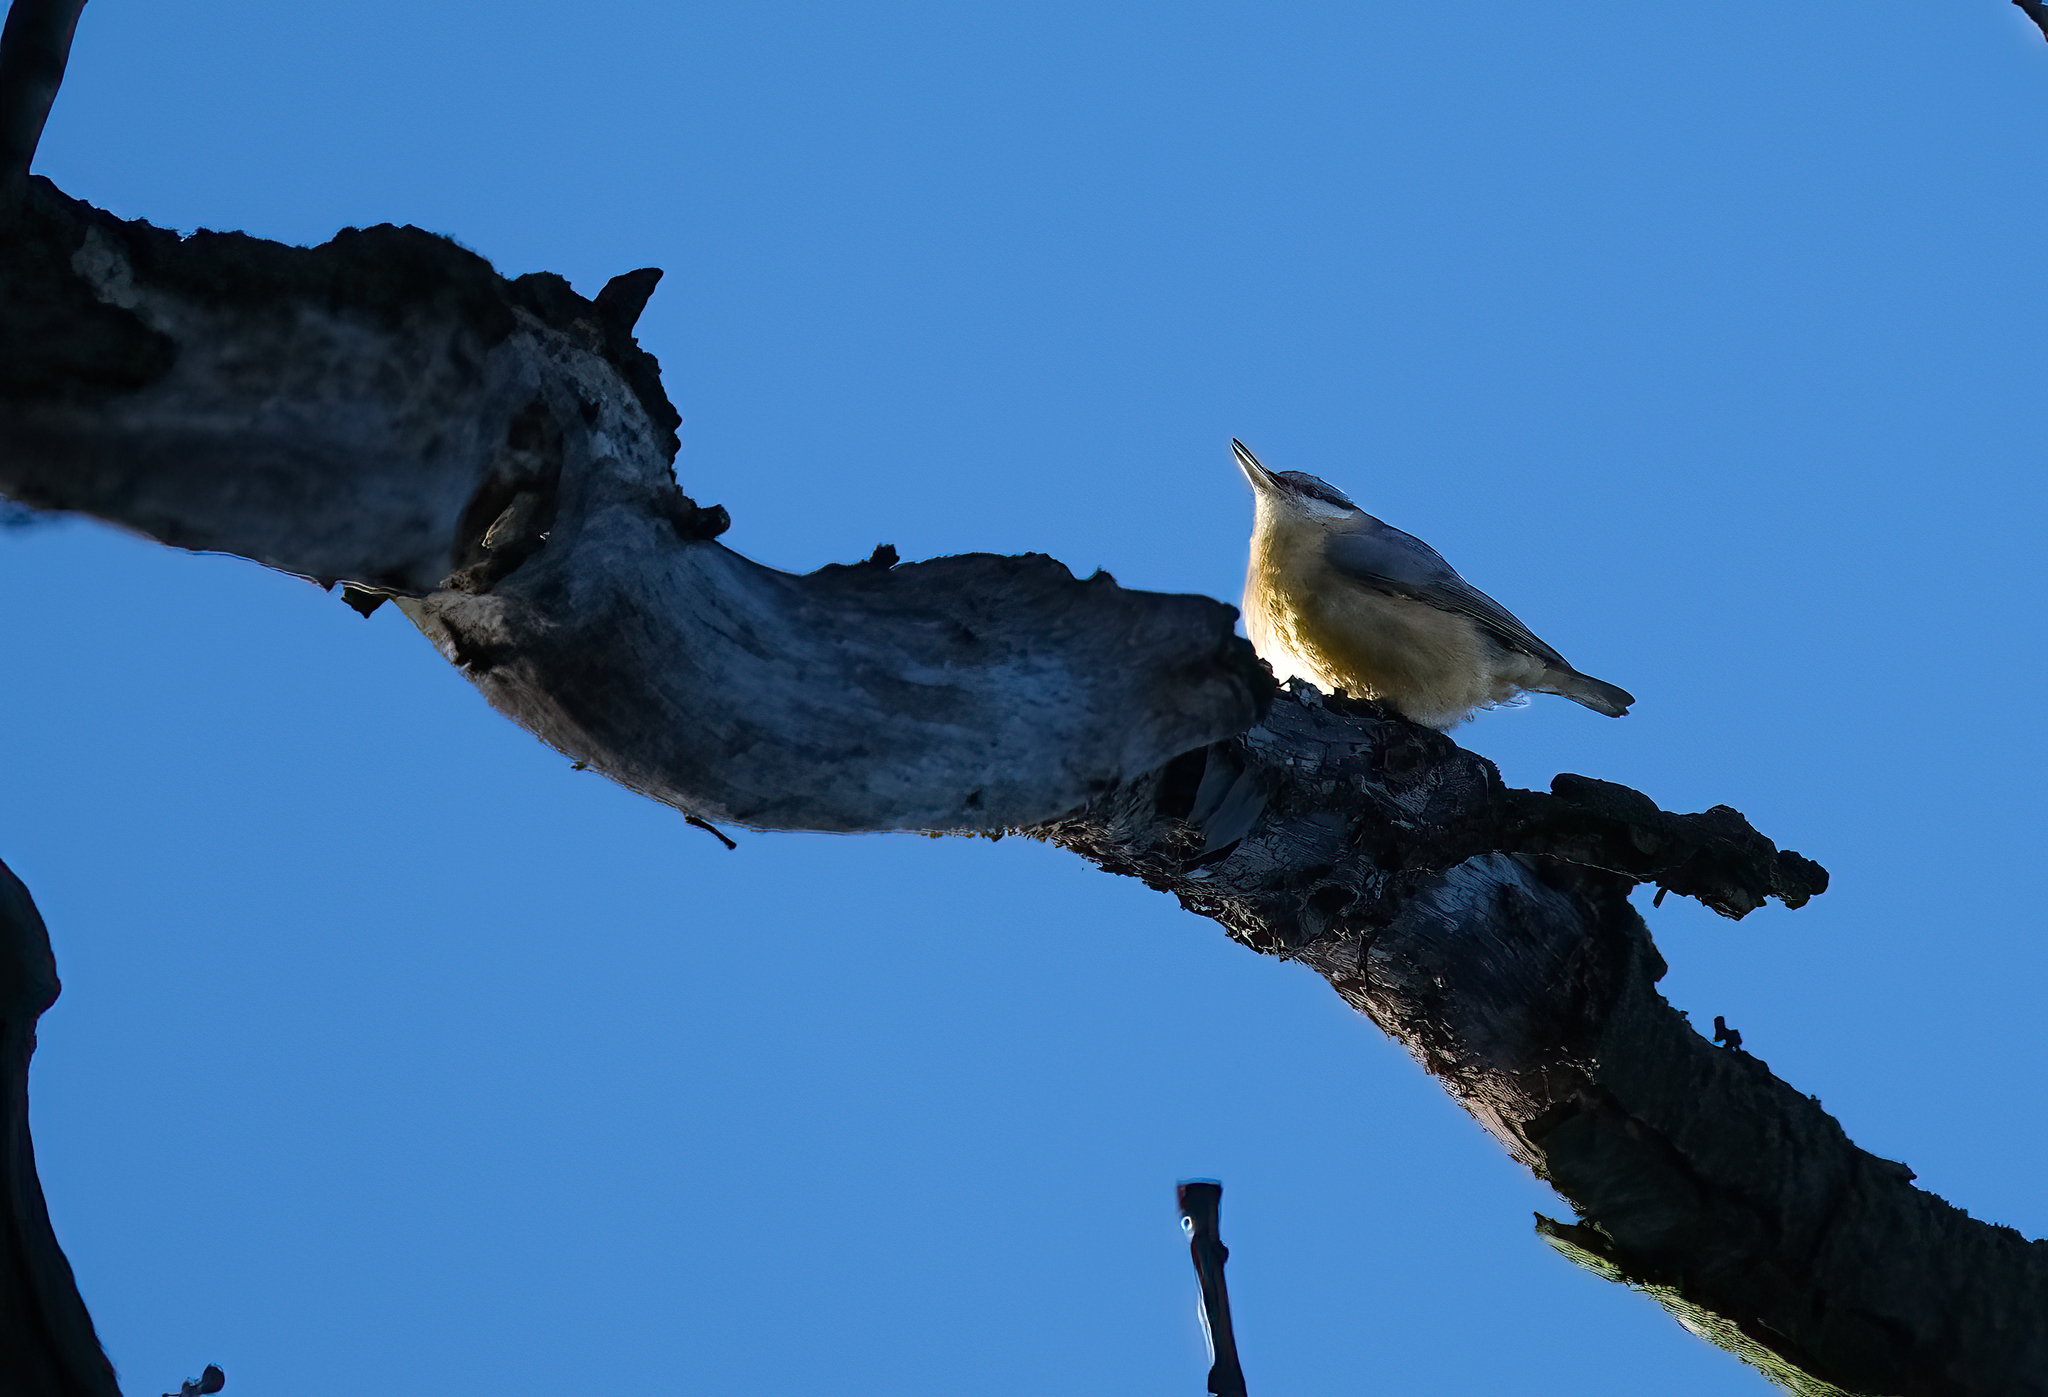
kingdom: Animalia
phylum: Chordata
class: Aves
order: Passeriformes
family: Sittidae
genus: Sitta
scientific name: Sitta europaea
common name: Eurasian nuthatch
